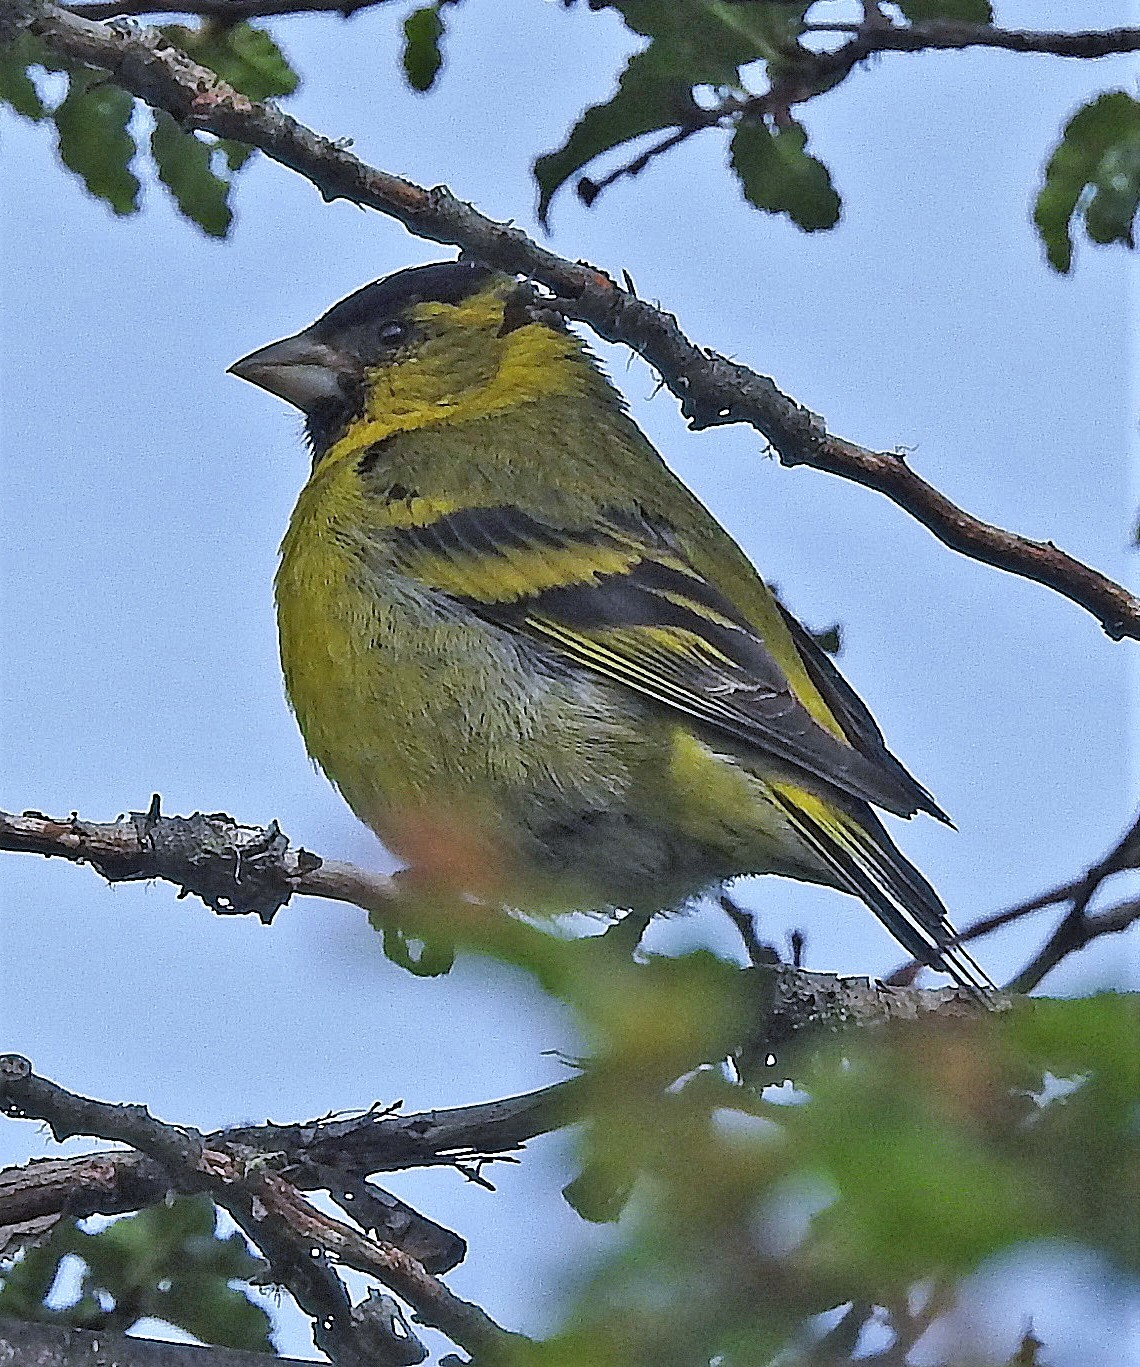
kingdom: Animalia
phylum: Chordata
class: Aves
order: Passeriformes
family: Fringillidae
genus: Spinus
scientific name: Spinus barbatus
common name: Black-chinned siskin
